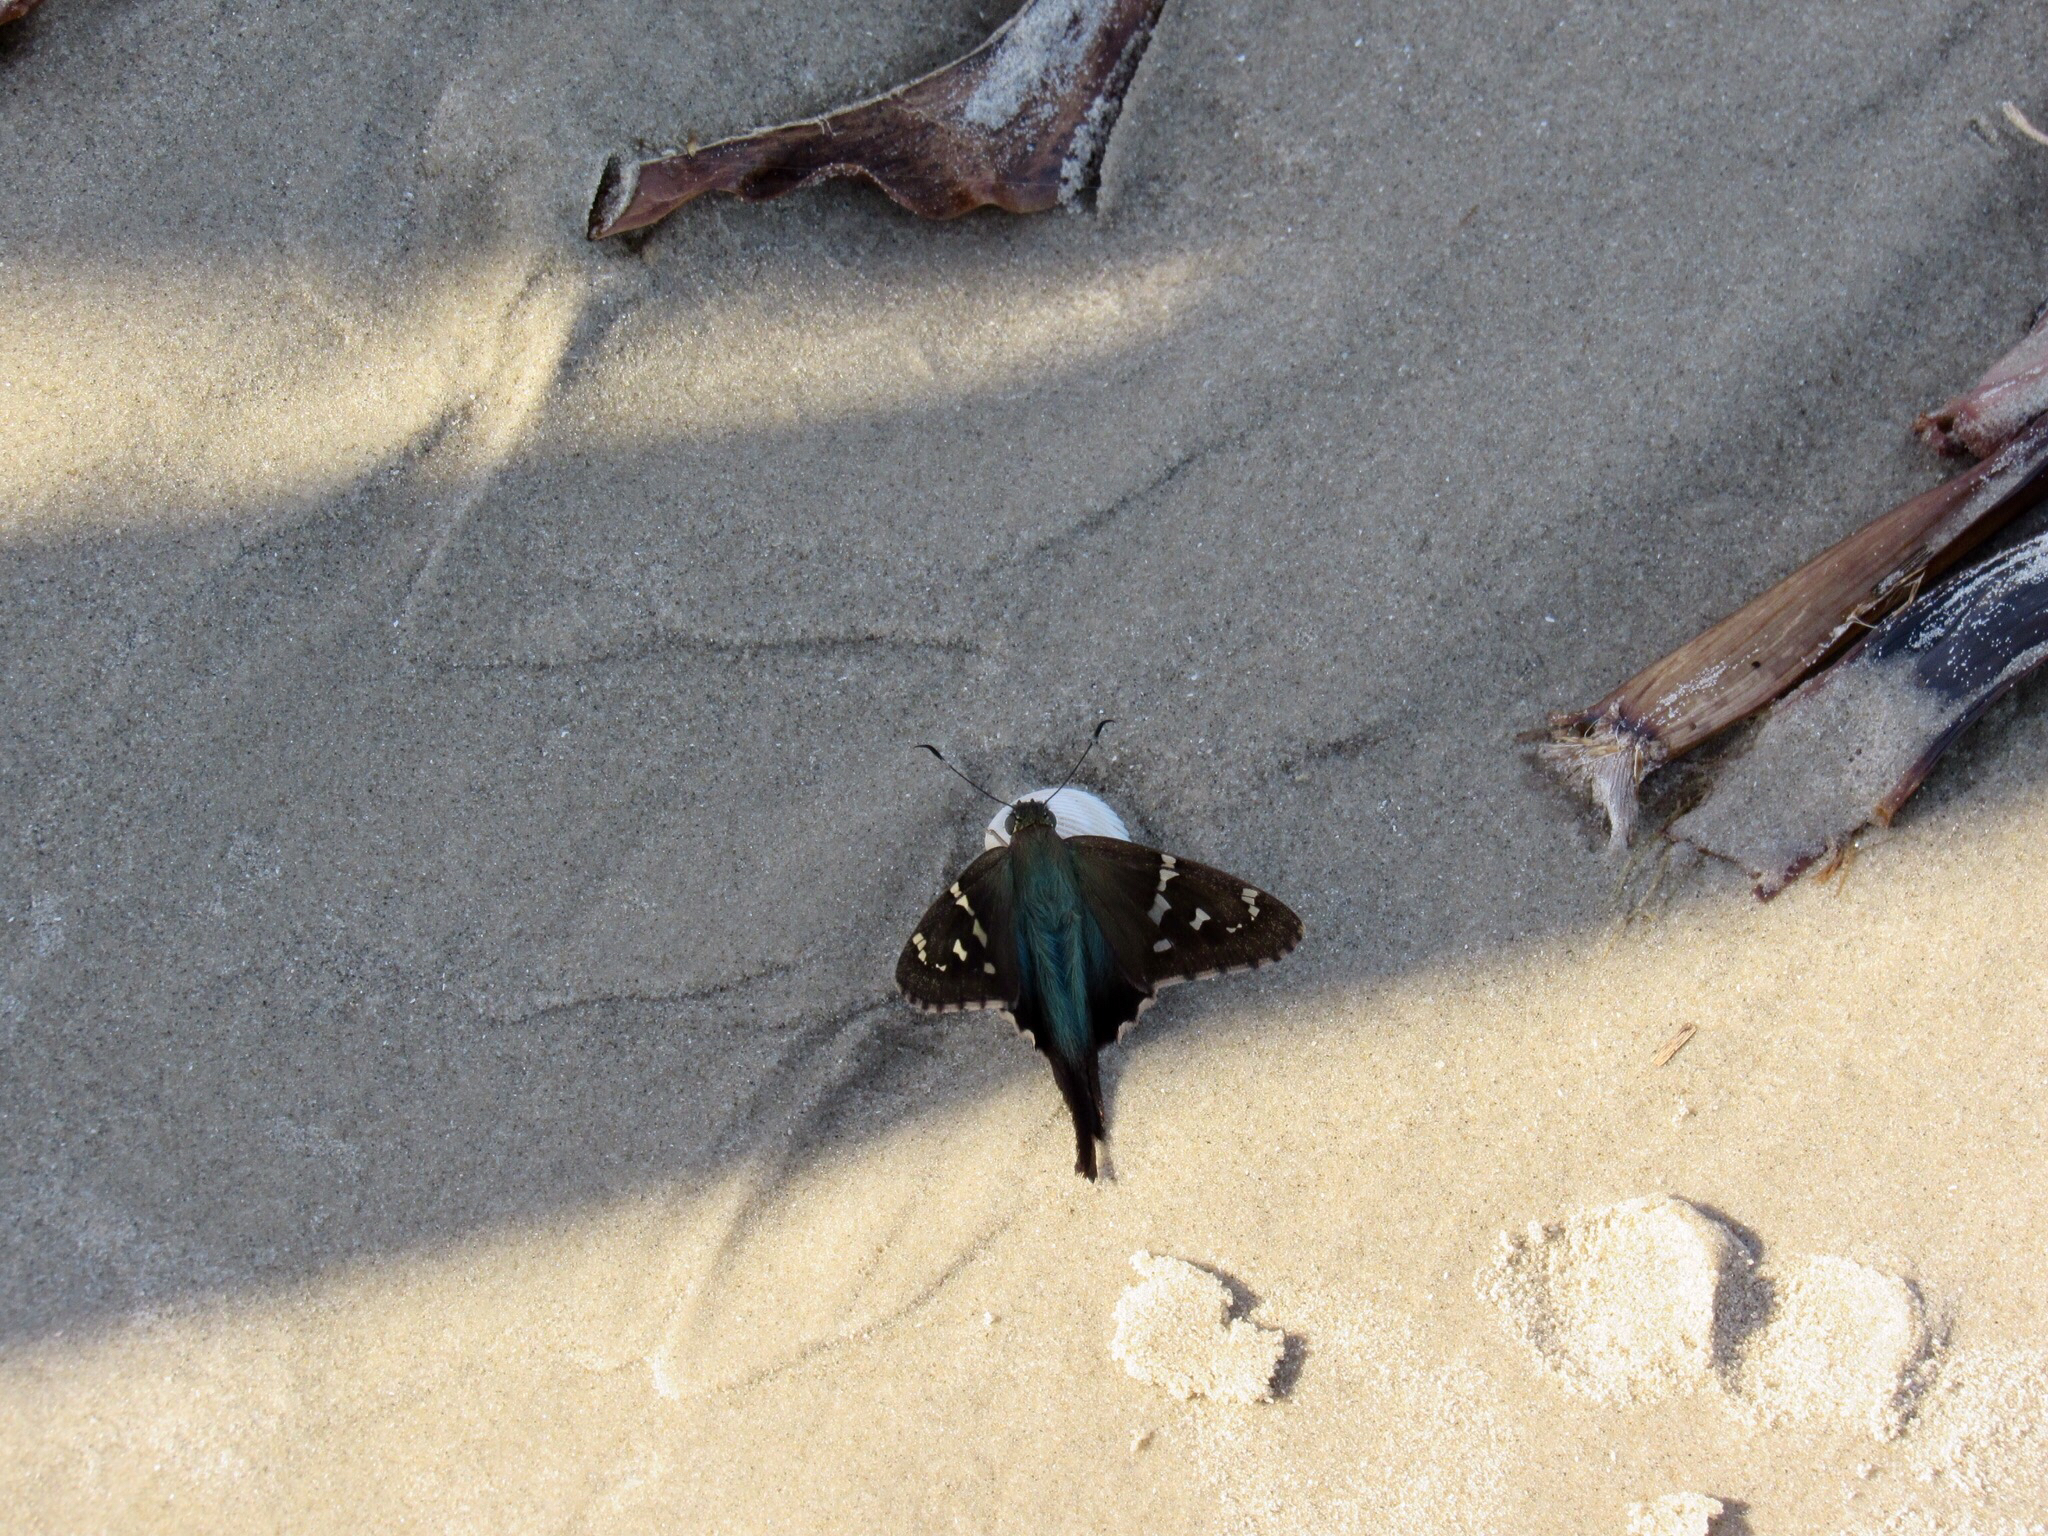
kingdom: Animalia
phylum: Arthropoda
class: Insecta
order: Lepidoptera
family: Hesperiidae
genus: Urbanus
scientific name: Urbanus proteus
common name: Long-tailed skipper
